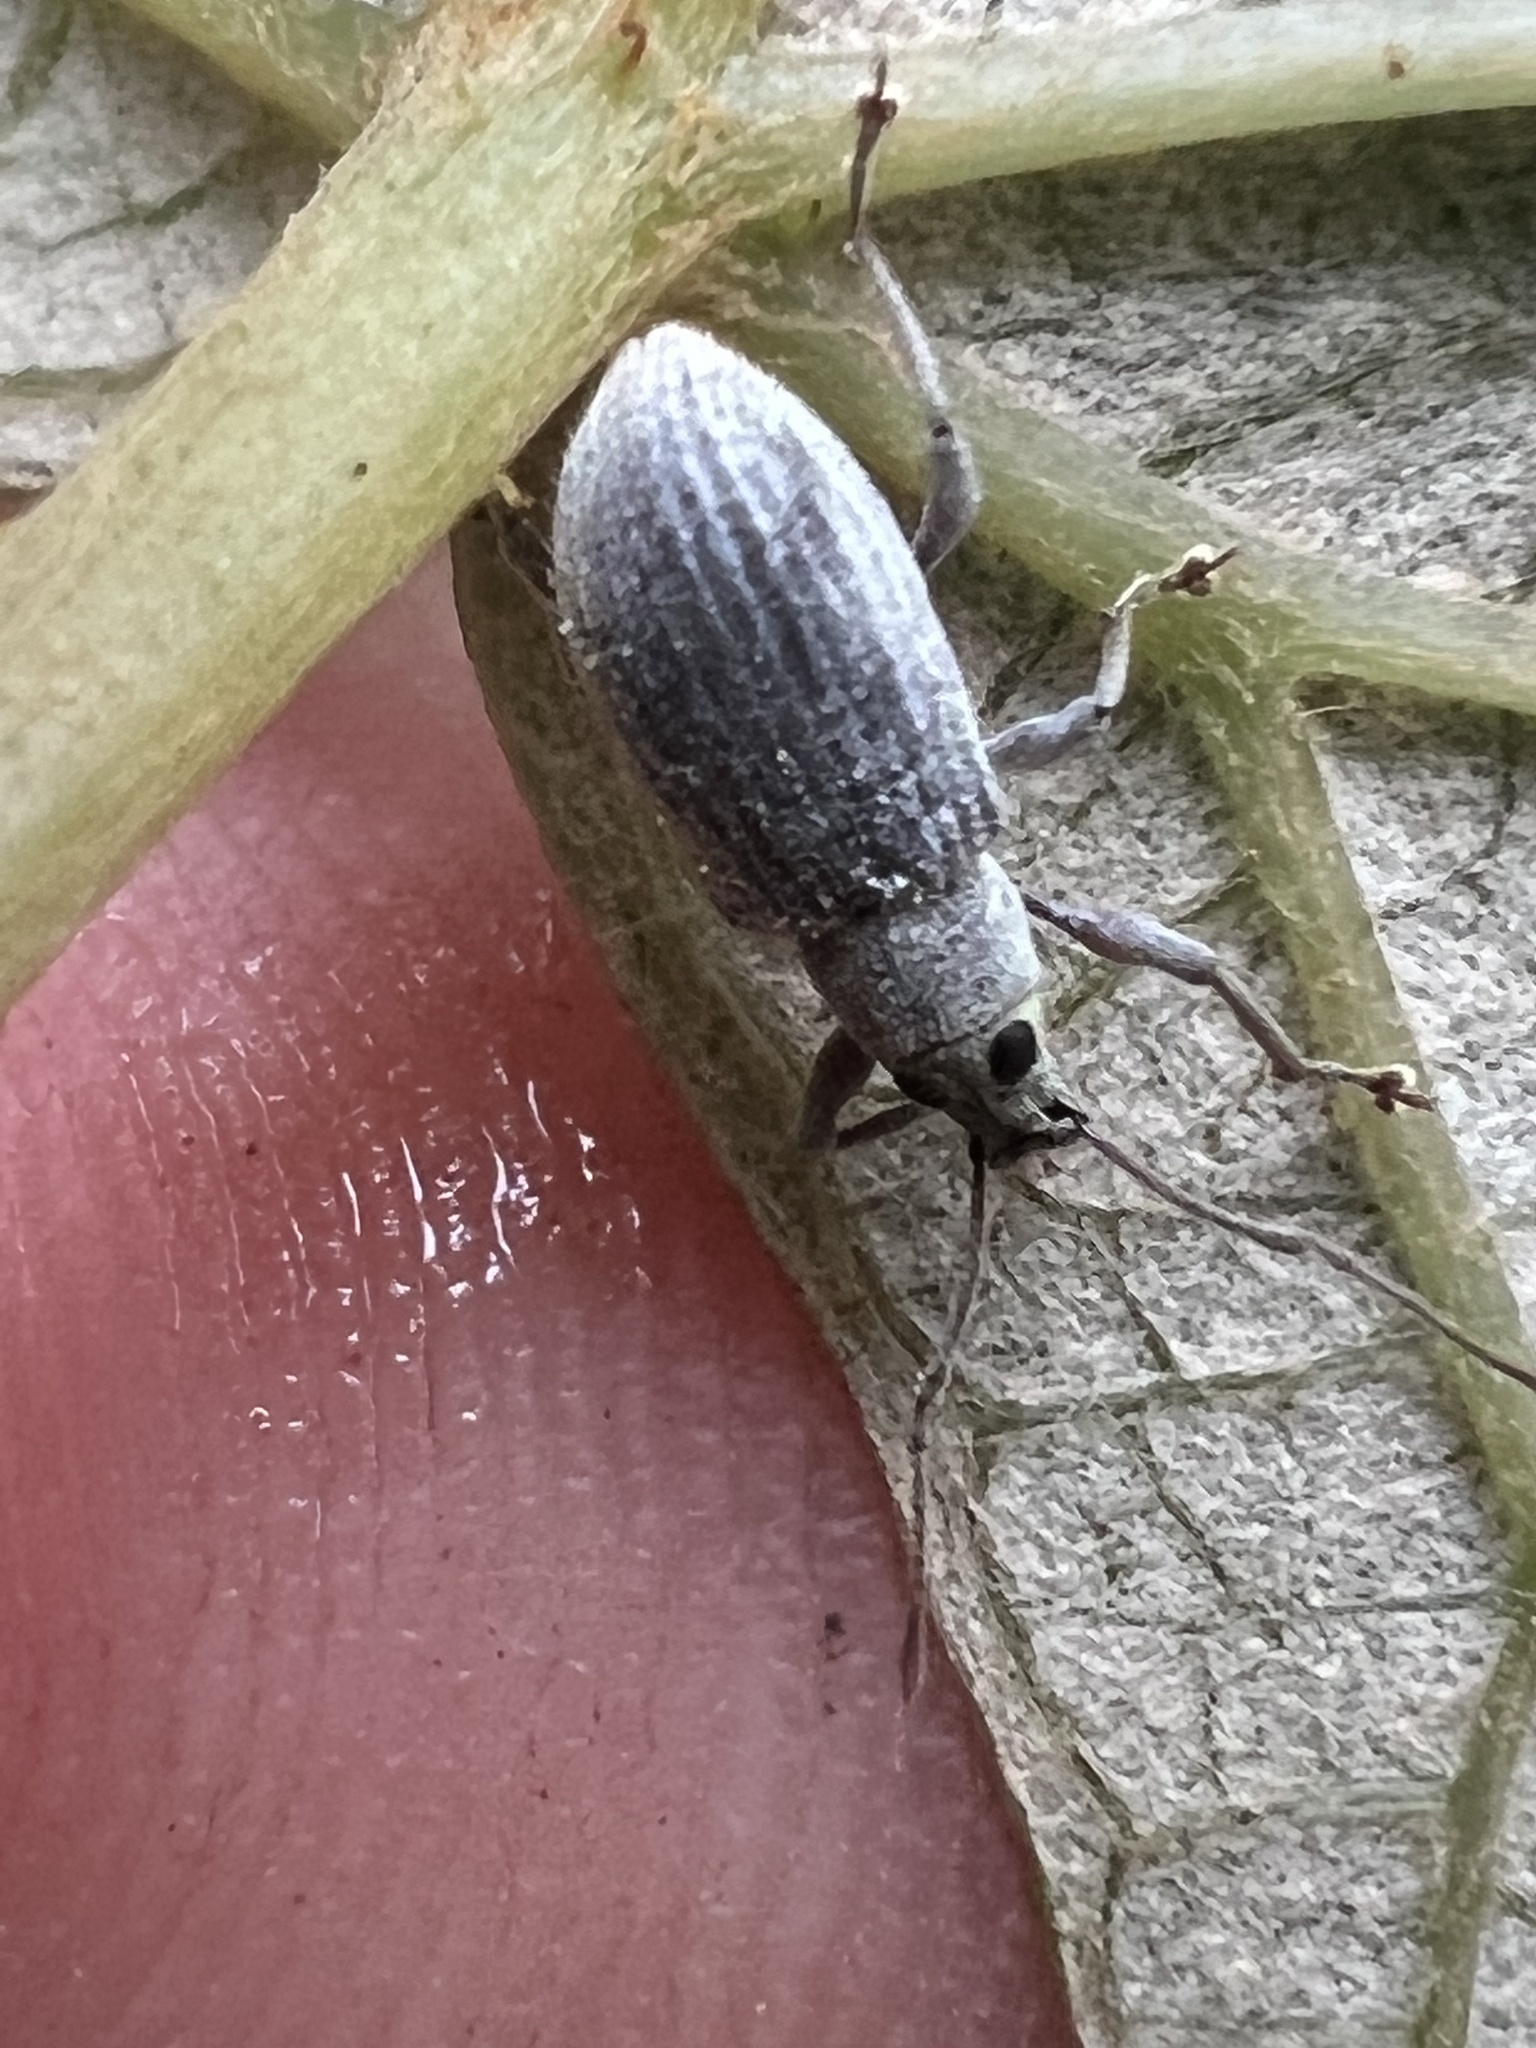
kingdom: Animalia
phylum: Arthropoda
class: Insecta
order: Coleoptera
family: Curculionidae
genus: Cyrtepistomus
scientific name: Cyrtepistomus castaneus
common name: Weevil
